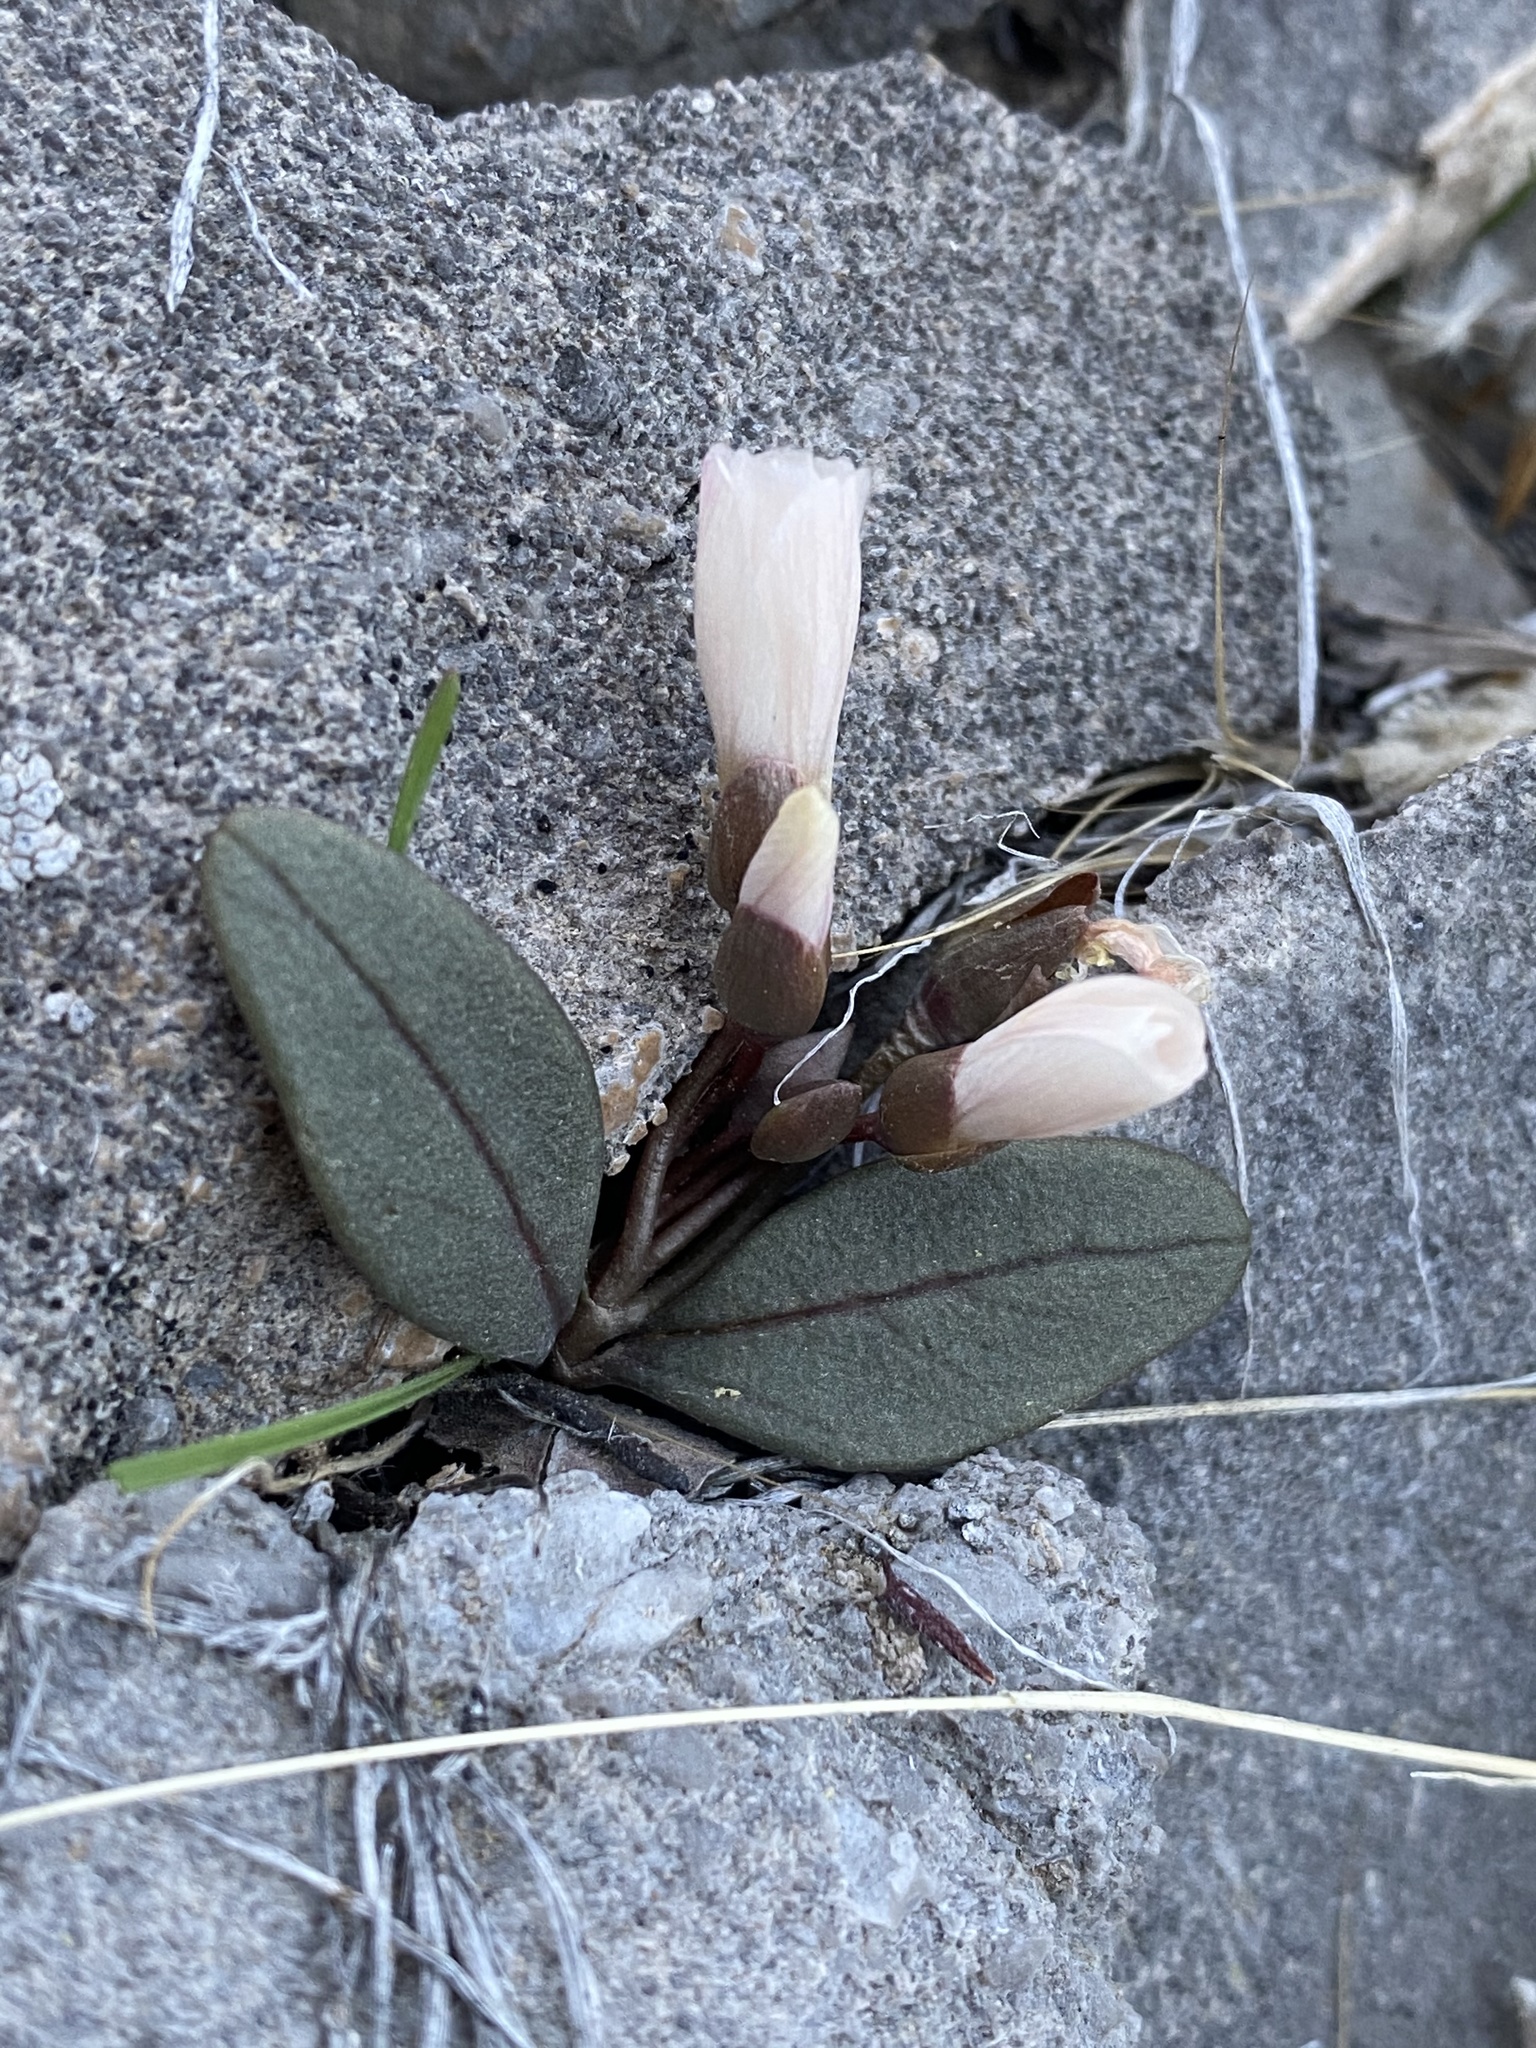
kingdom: Plantae
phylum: Tracheophyta
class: Magnoliopsida
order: Caryophyllales
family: Montiaceae
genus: Claytonia
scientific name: Claytonia panamintensis
